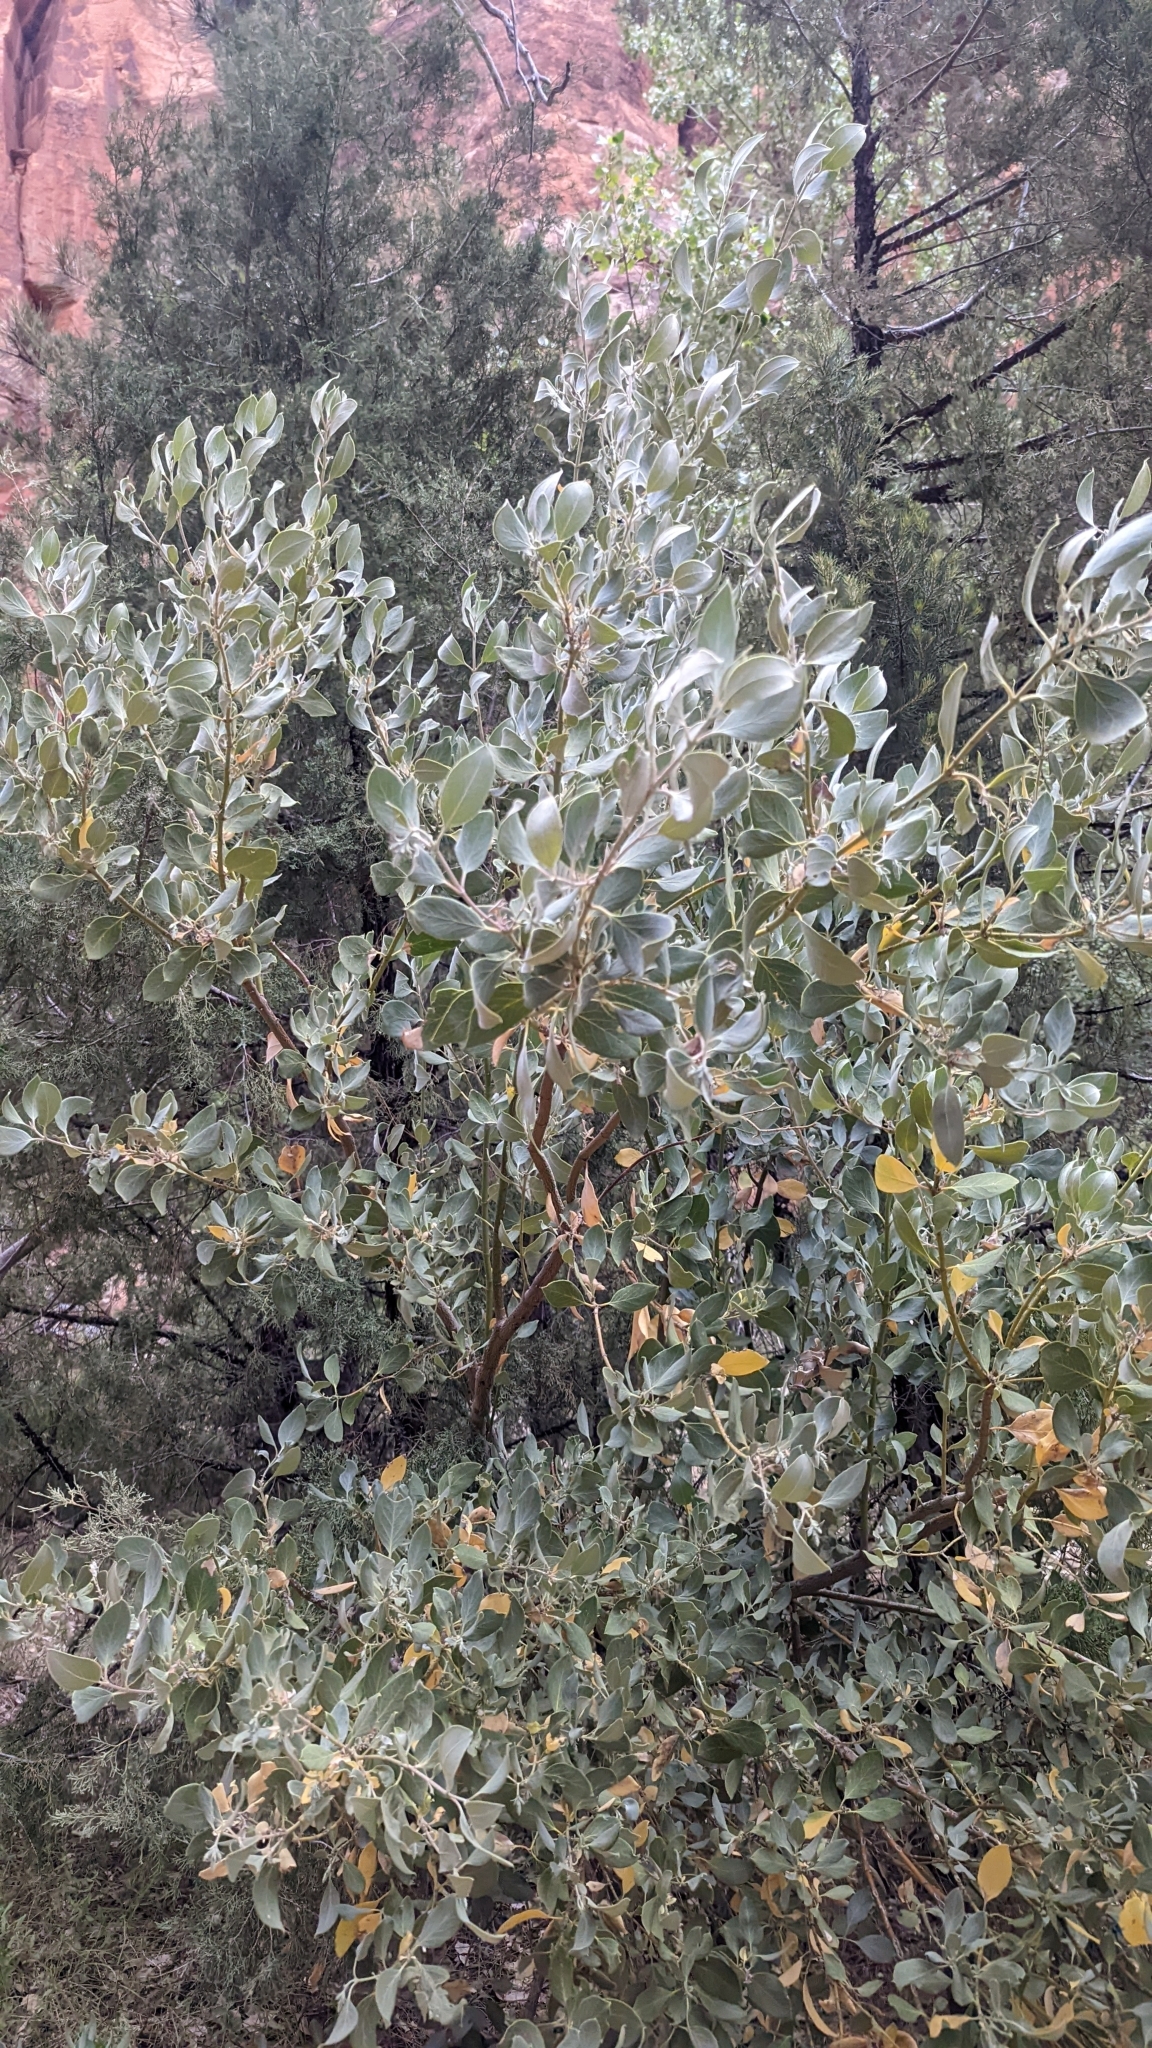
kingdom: Plantae
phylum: Tracheophyta
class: Magnoliopsida
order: Garryales
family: Garryaceae
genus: Garrya
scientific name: Garrya flavescens
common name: Ashy silk-tassel
